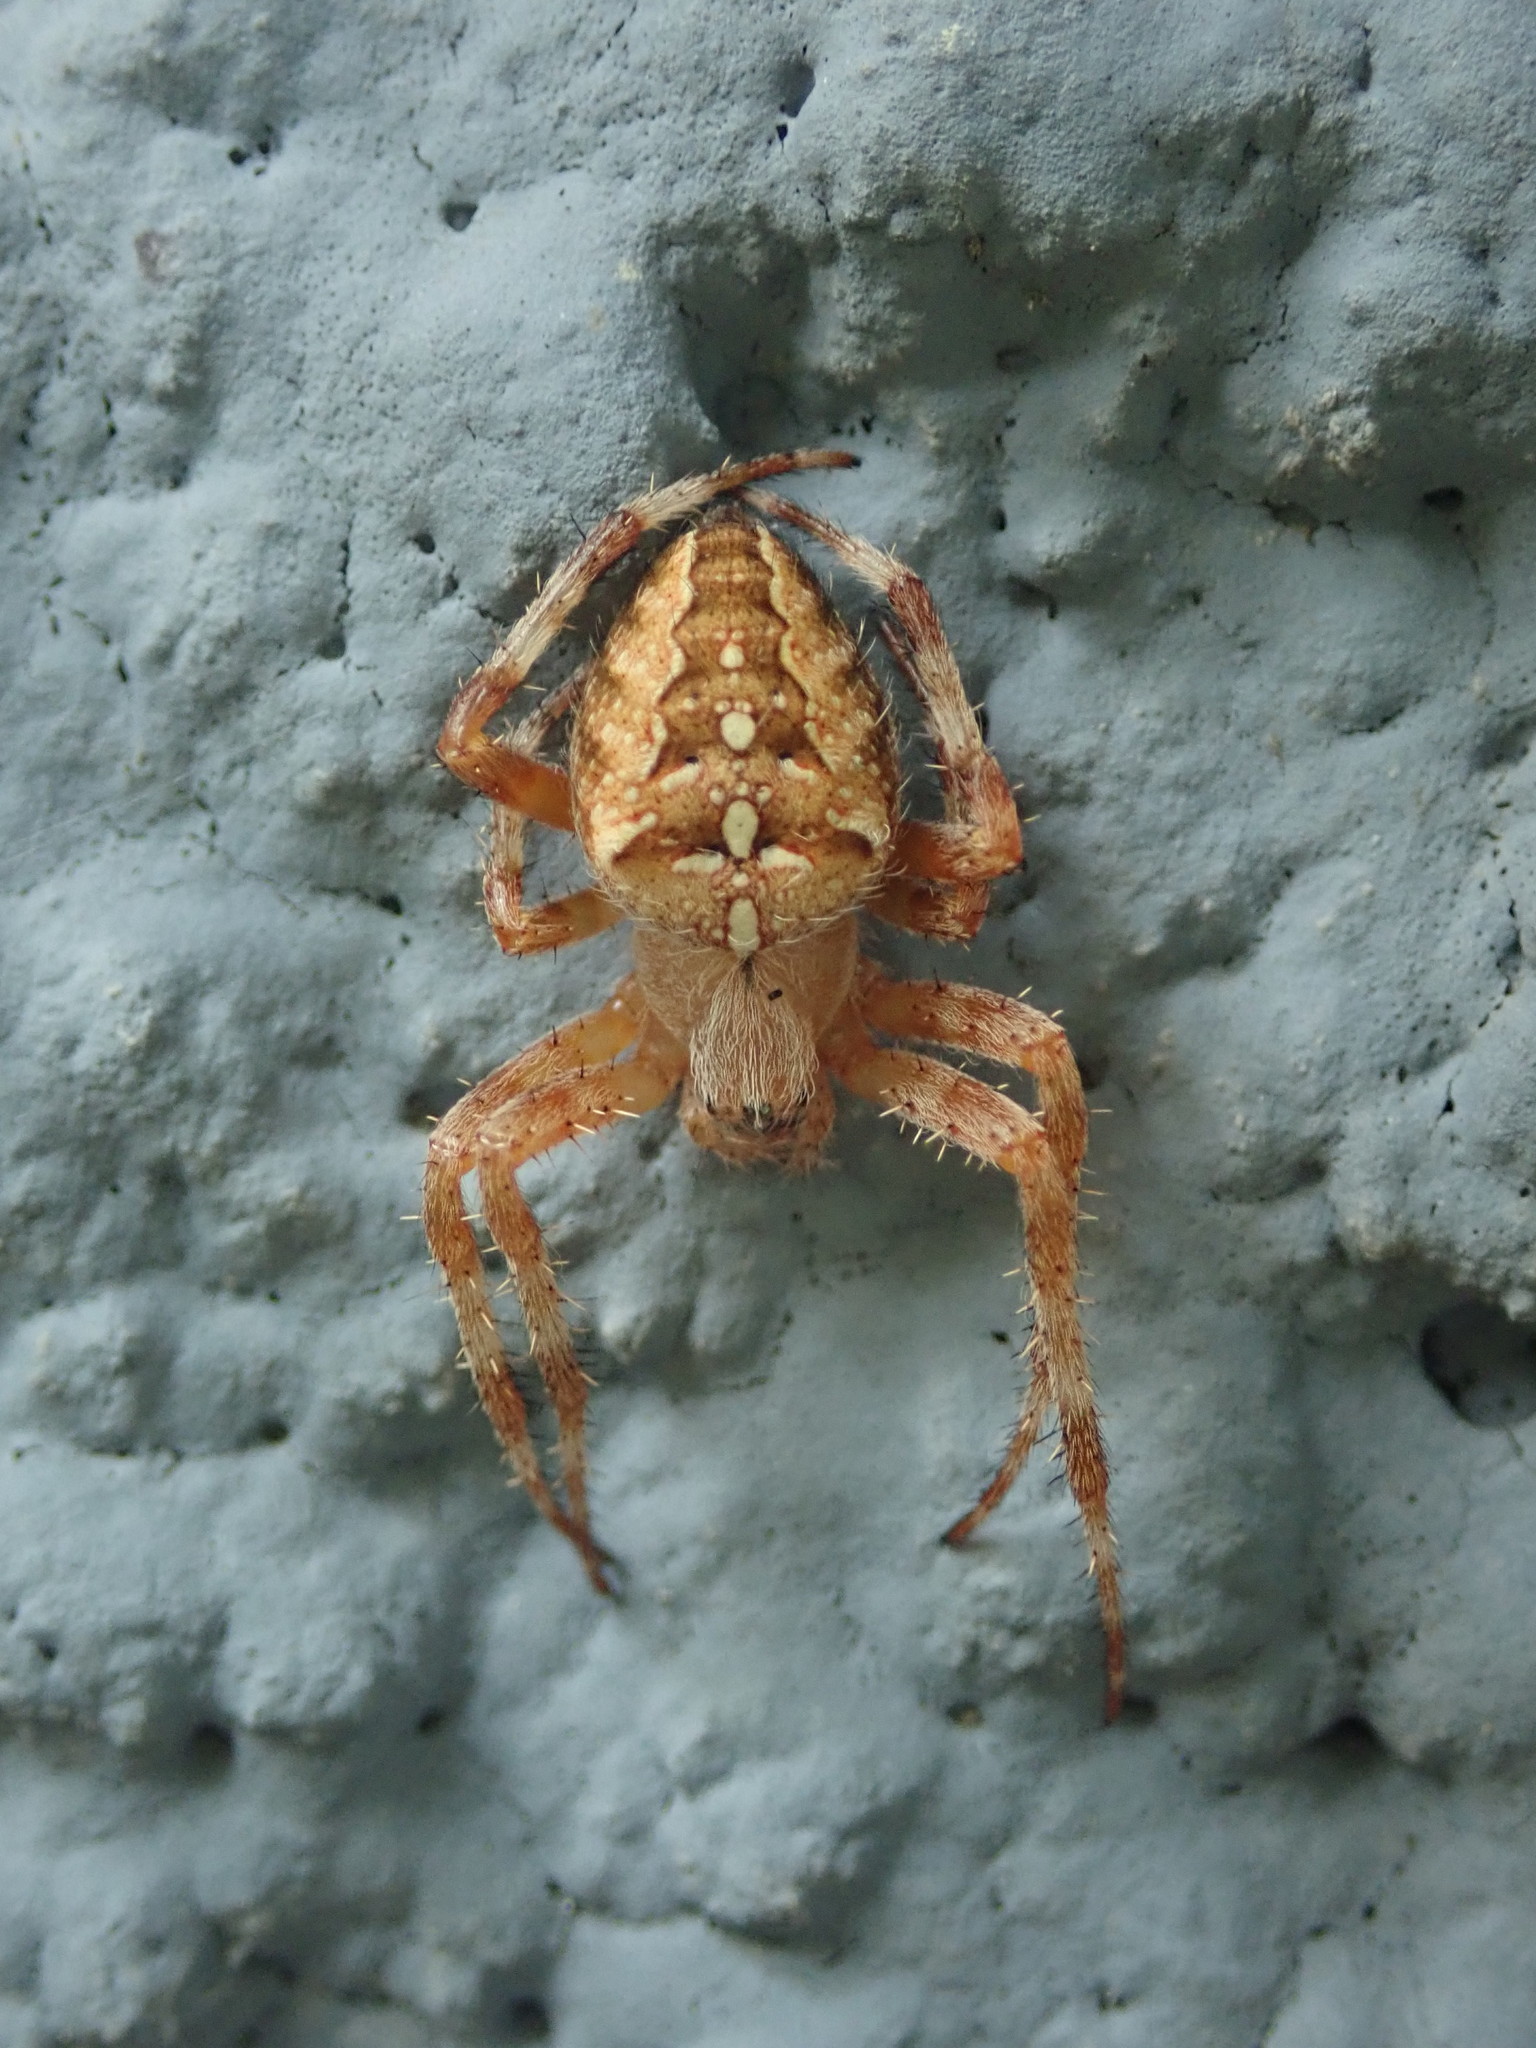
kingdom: Animalia
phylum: Arthropoda
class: Arachnida
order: Araneae
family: Araneidae
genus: Araneus
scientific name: Araneus diadematus
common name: Cross orbweaver
